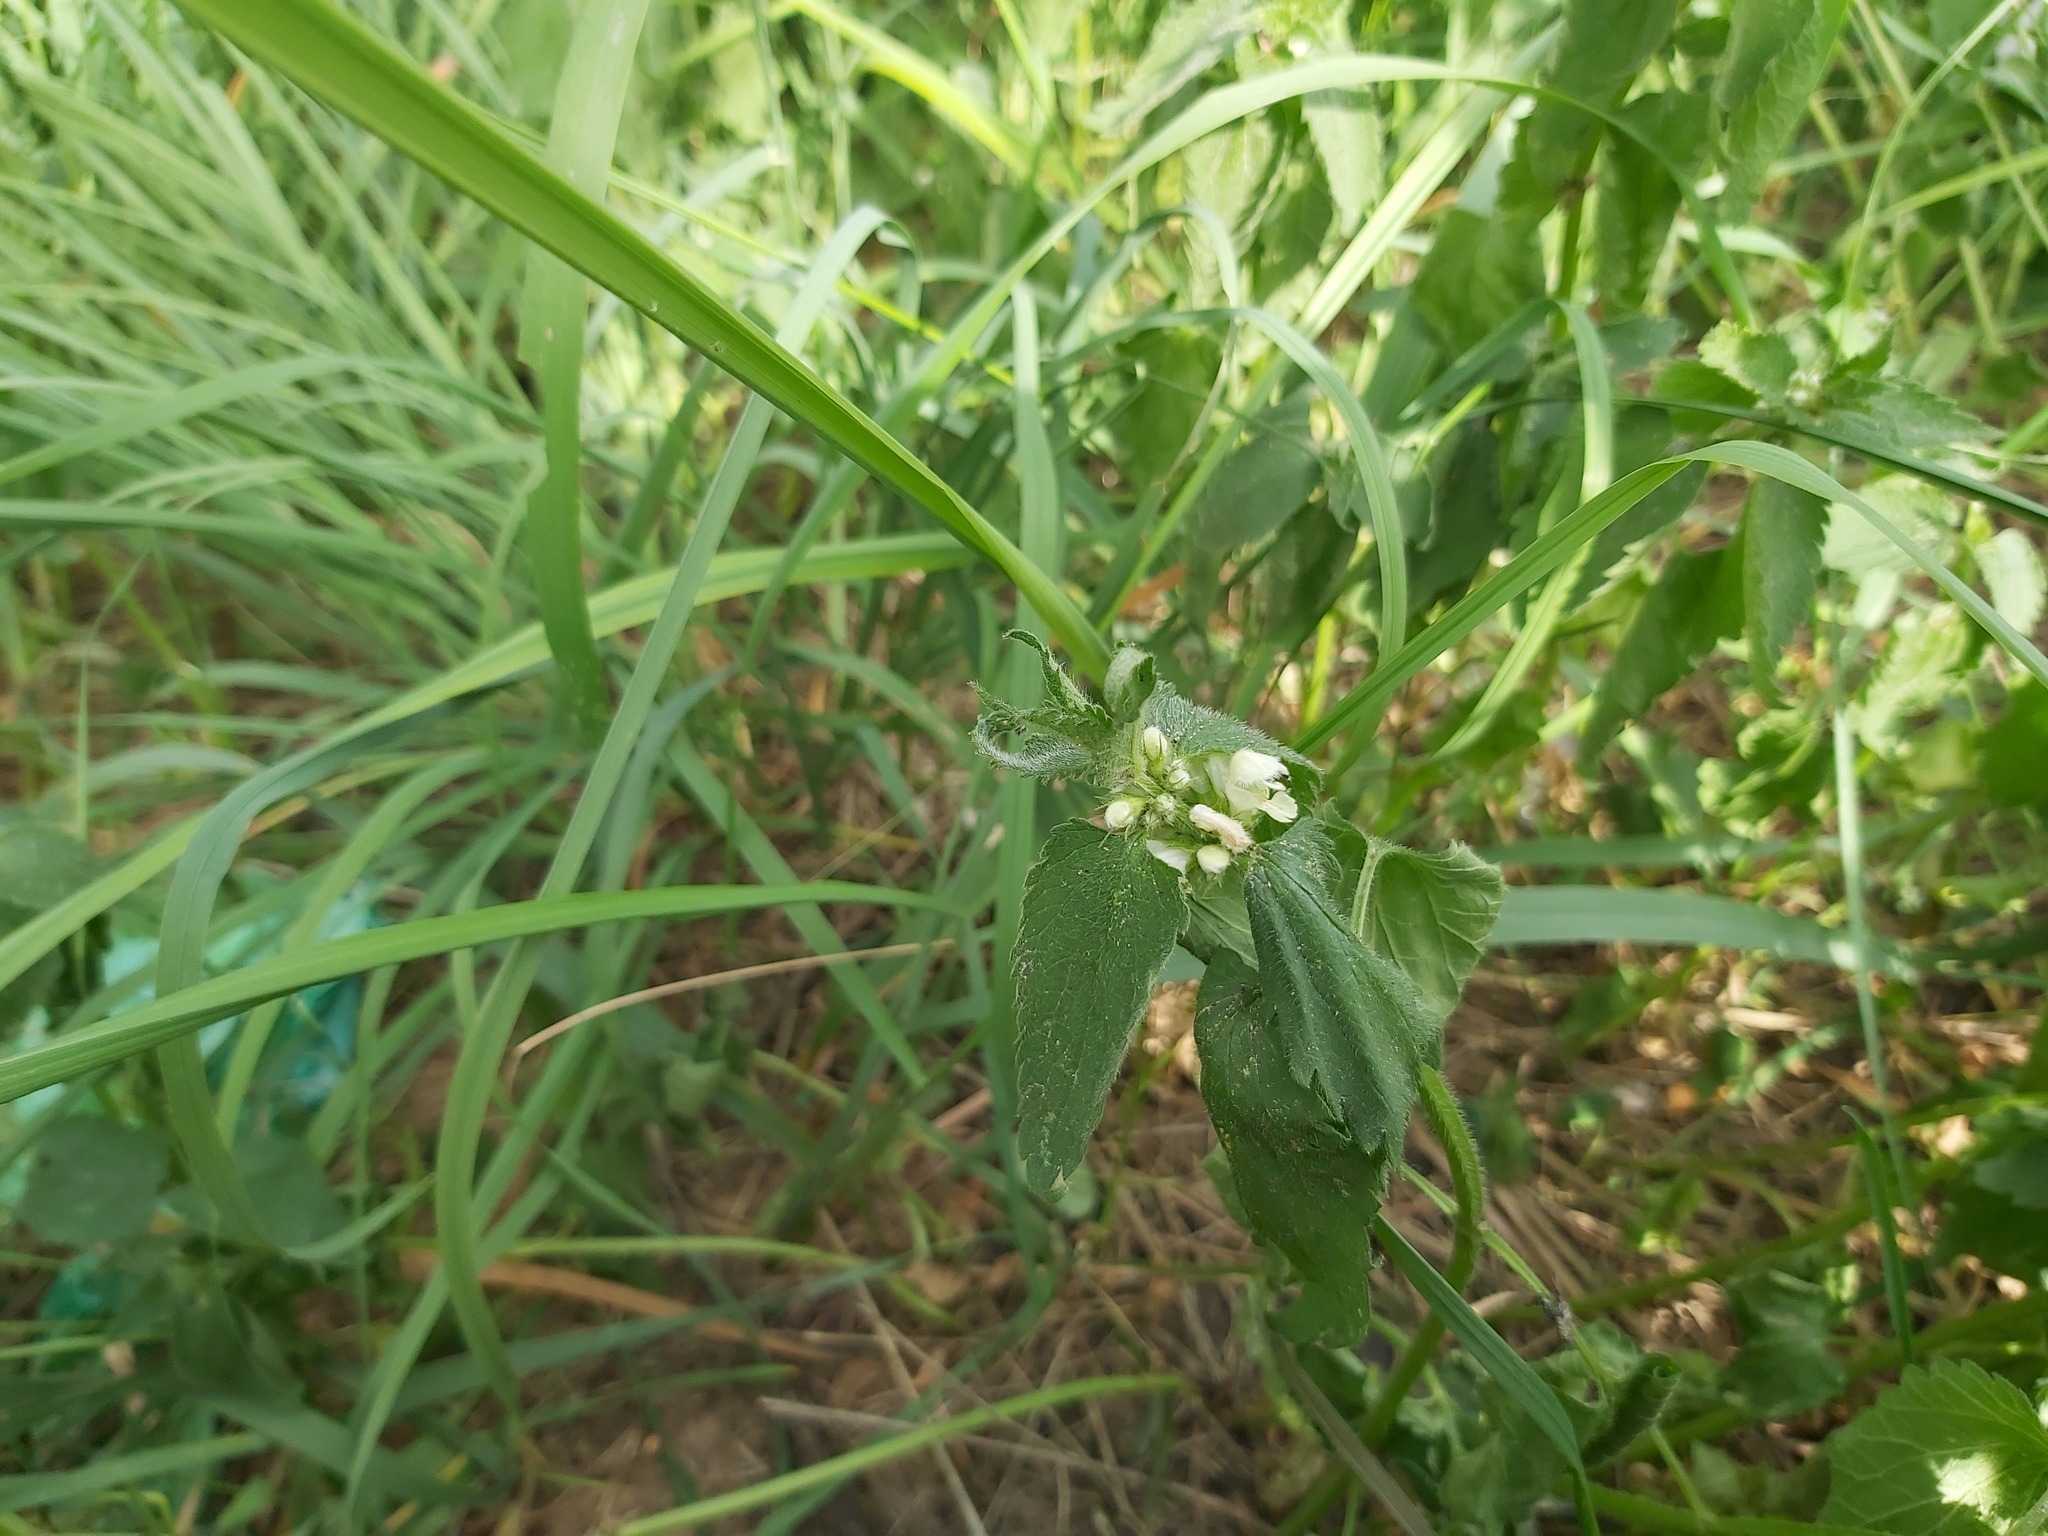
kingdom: Plantae
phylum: Tracheophyta
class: Magnoliopsida
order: Lamiales
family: Lamiaceae
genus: Lamium
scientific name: Lamium album
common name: White dead-nettle
